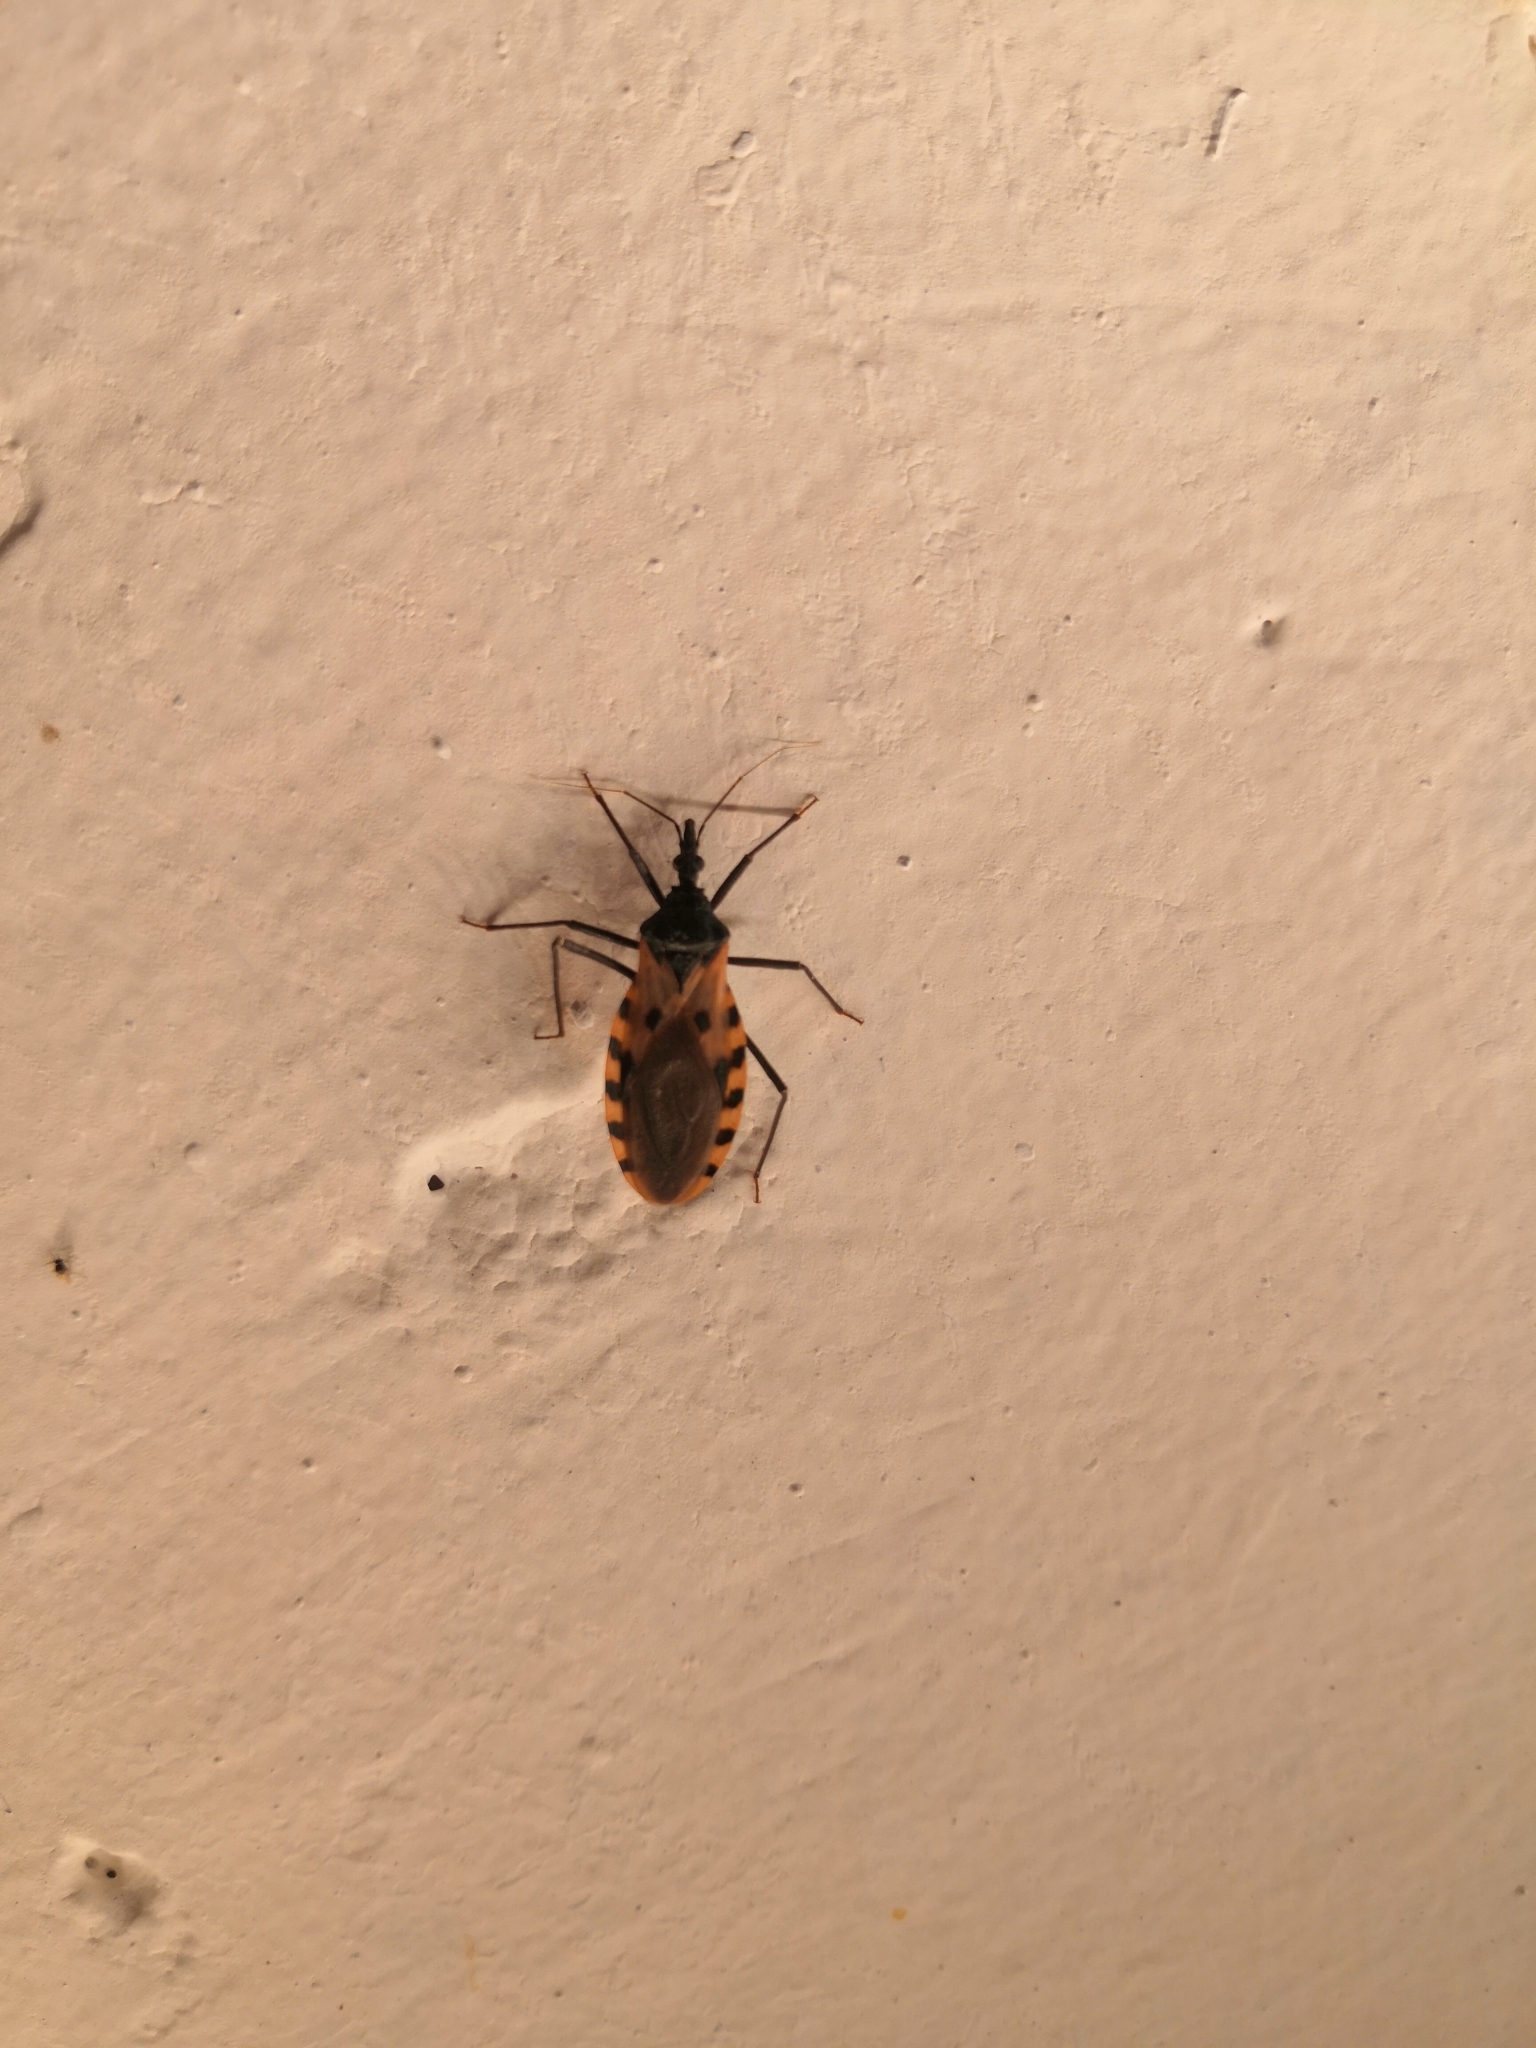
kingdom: Animalia
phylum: Arthropoda
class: Insecta
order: Hemiptera
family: Reduviidae
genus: Meccus
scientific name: Meccus dimidiatus
